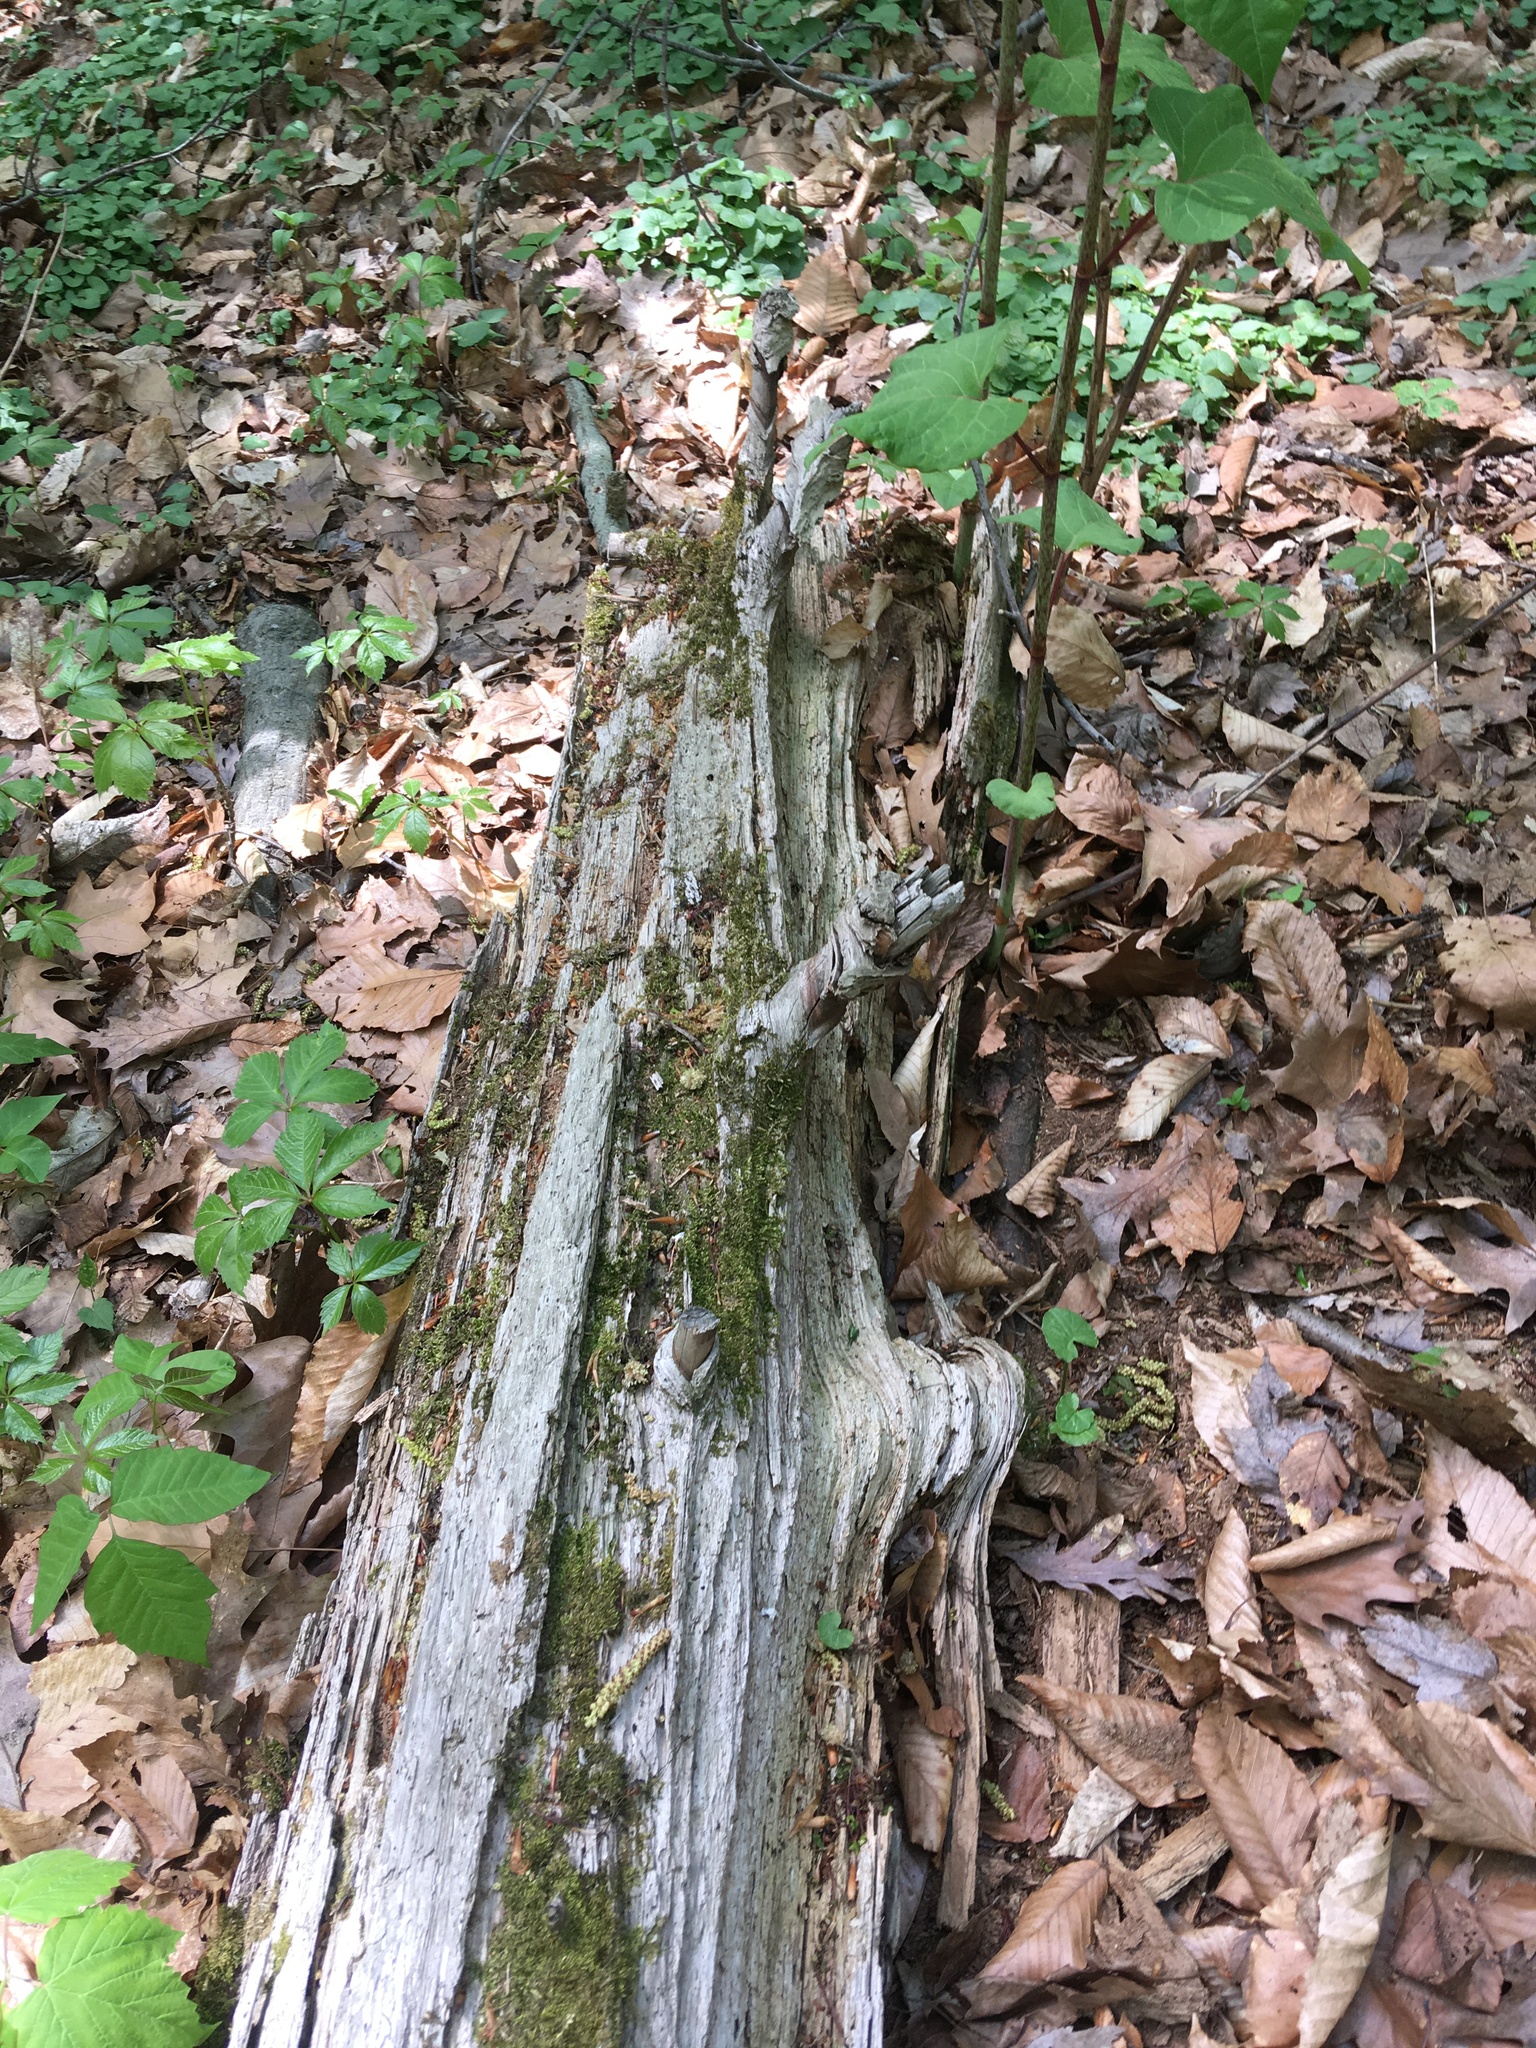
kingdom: Plantae
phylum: Tracheophyta
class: Pinopsida
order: Pinales
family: Pinaceae
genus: Tsuga
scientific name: Tsuga canadensis
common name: Eastern hemlock
